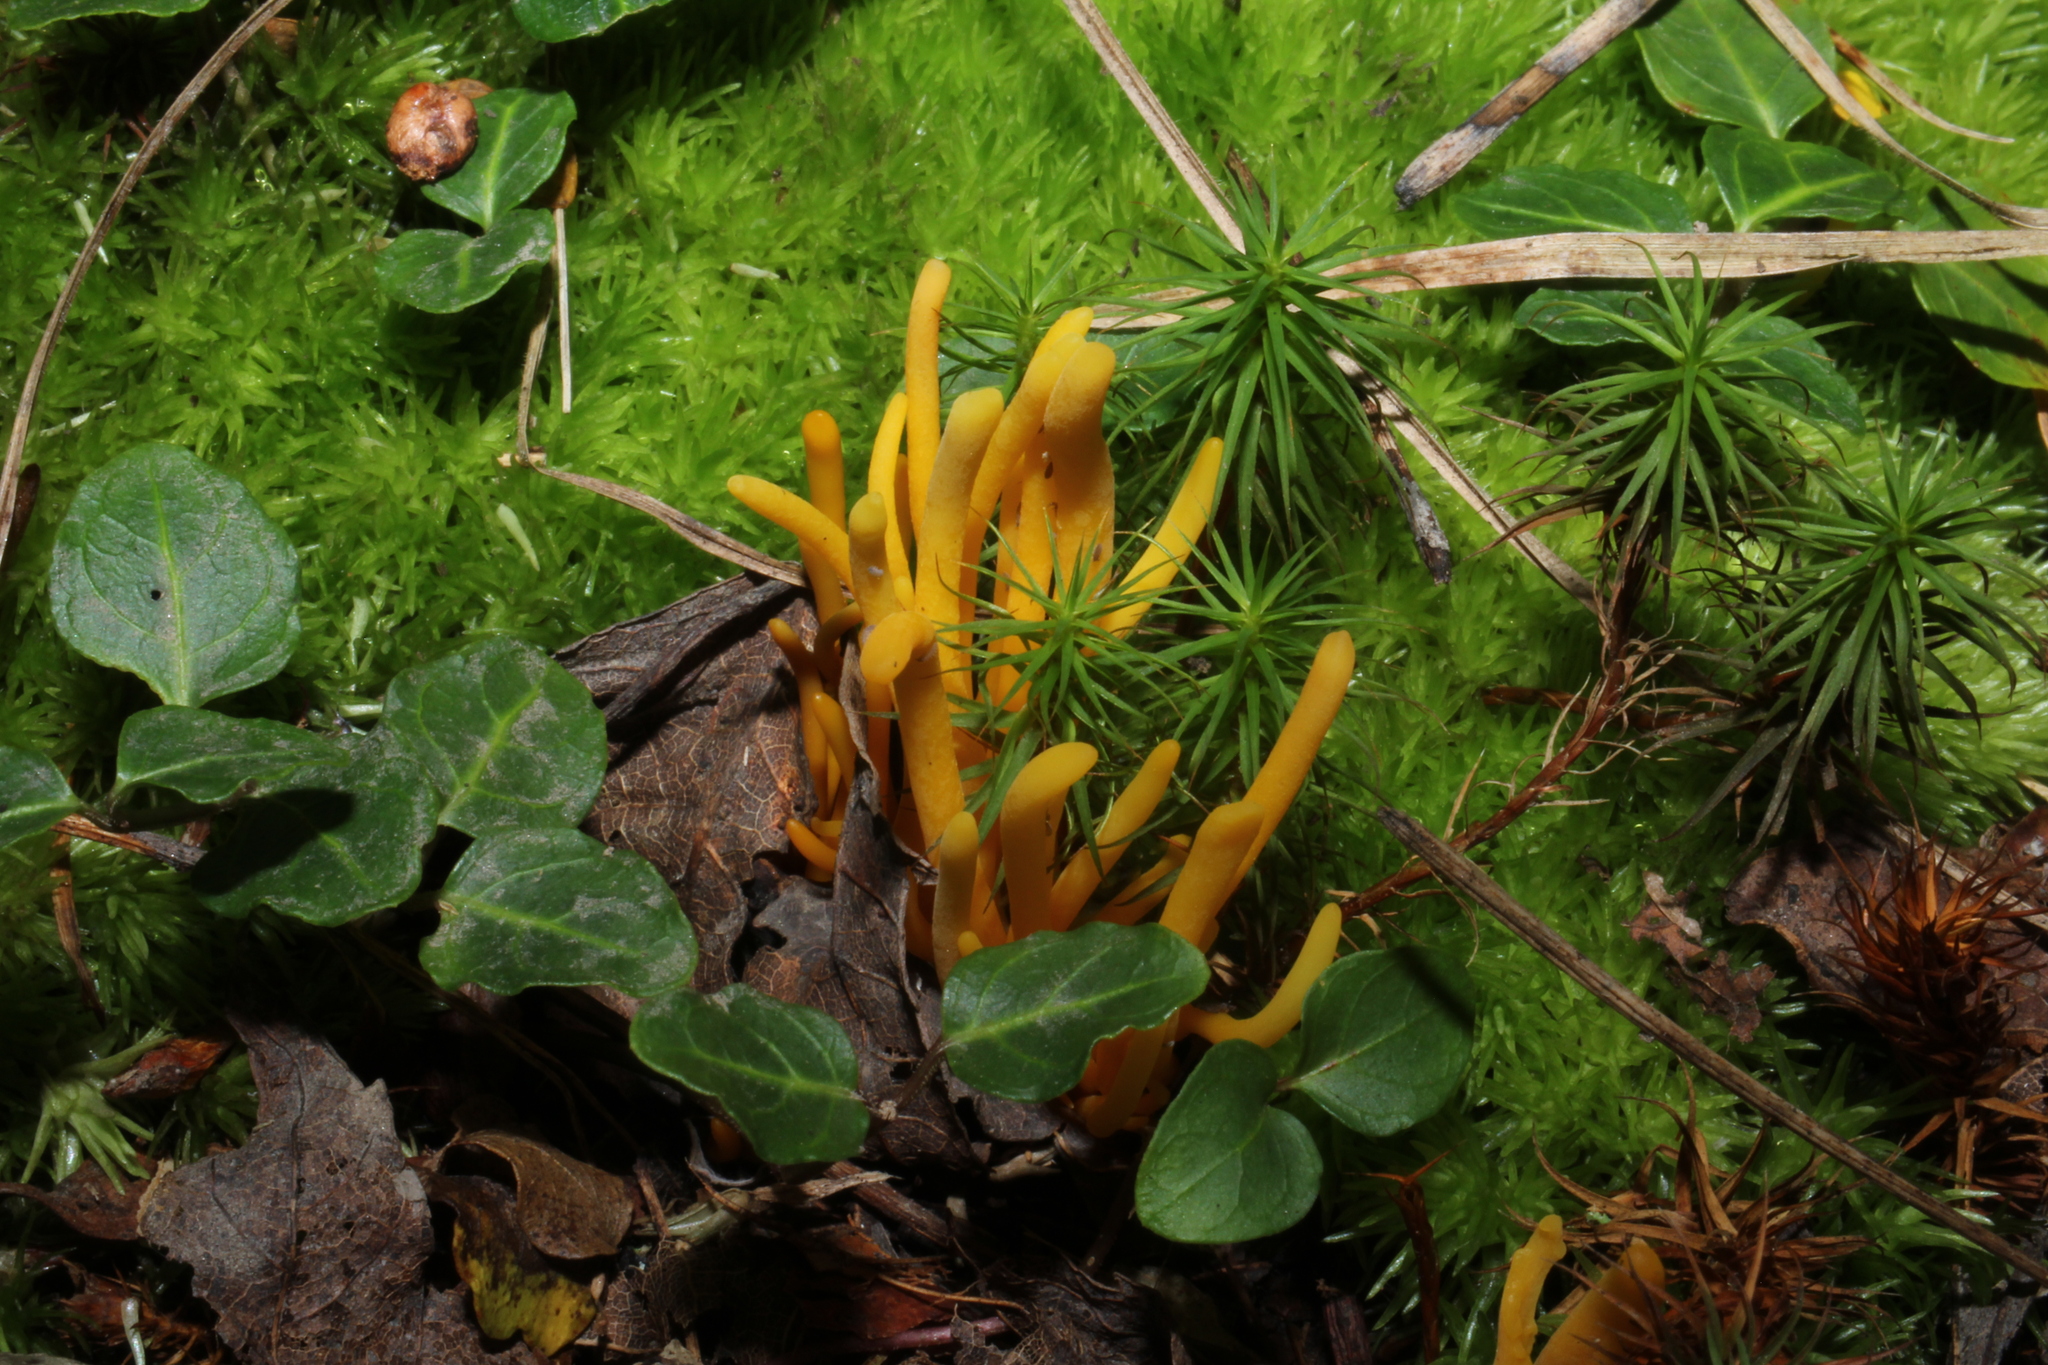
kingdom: Fungi
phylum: Basidiomycota
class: Agaricomycetes
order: Agaricales
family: Clavariaceae
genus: Clavulinopsis
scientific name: Clavulinopsis aurantiocinnabarina
